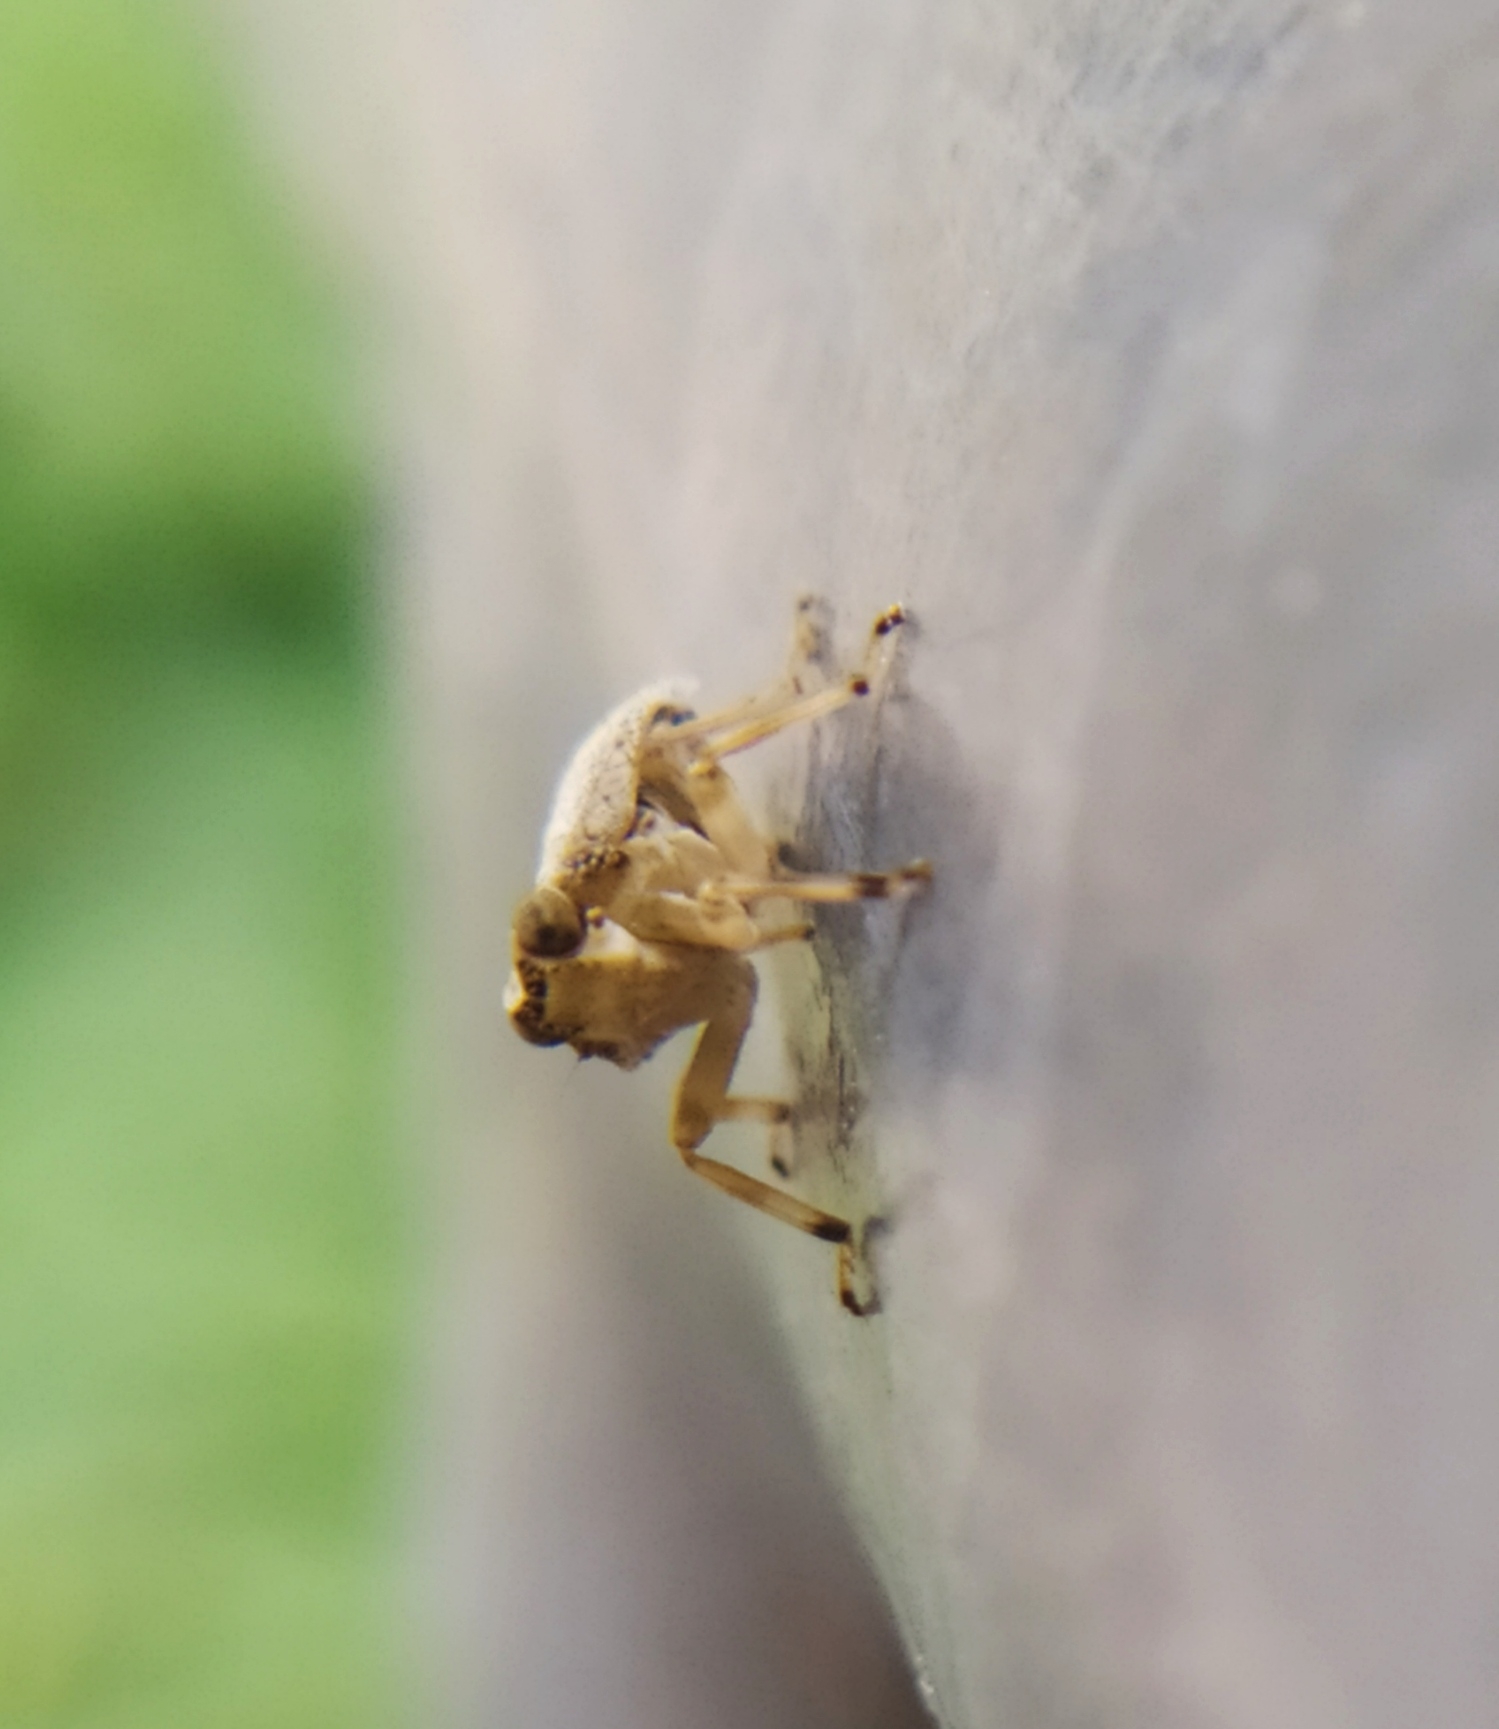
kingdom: Animalia
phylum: Arthropoda
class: Insecta
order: Hemiptera
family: Issidae
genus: Issus
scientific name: Issus coleoptratus
